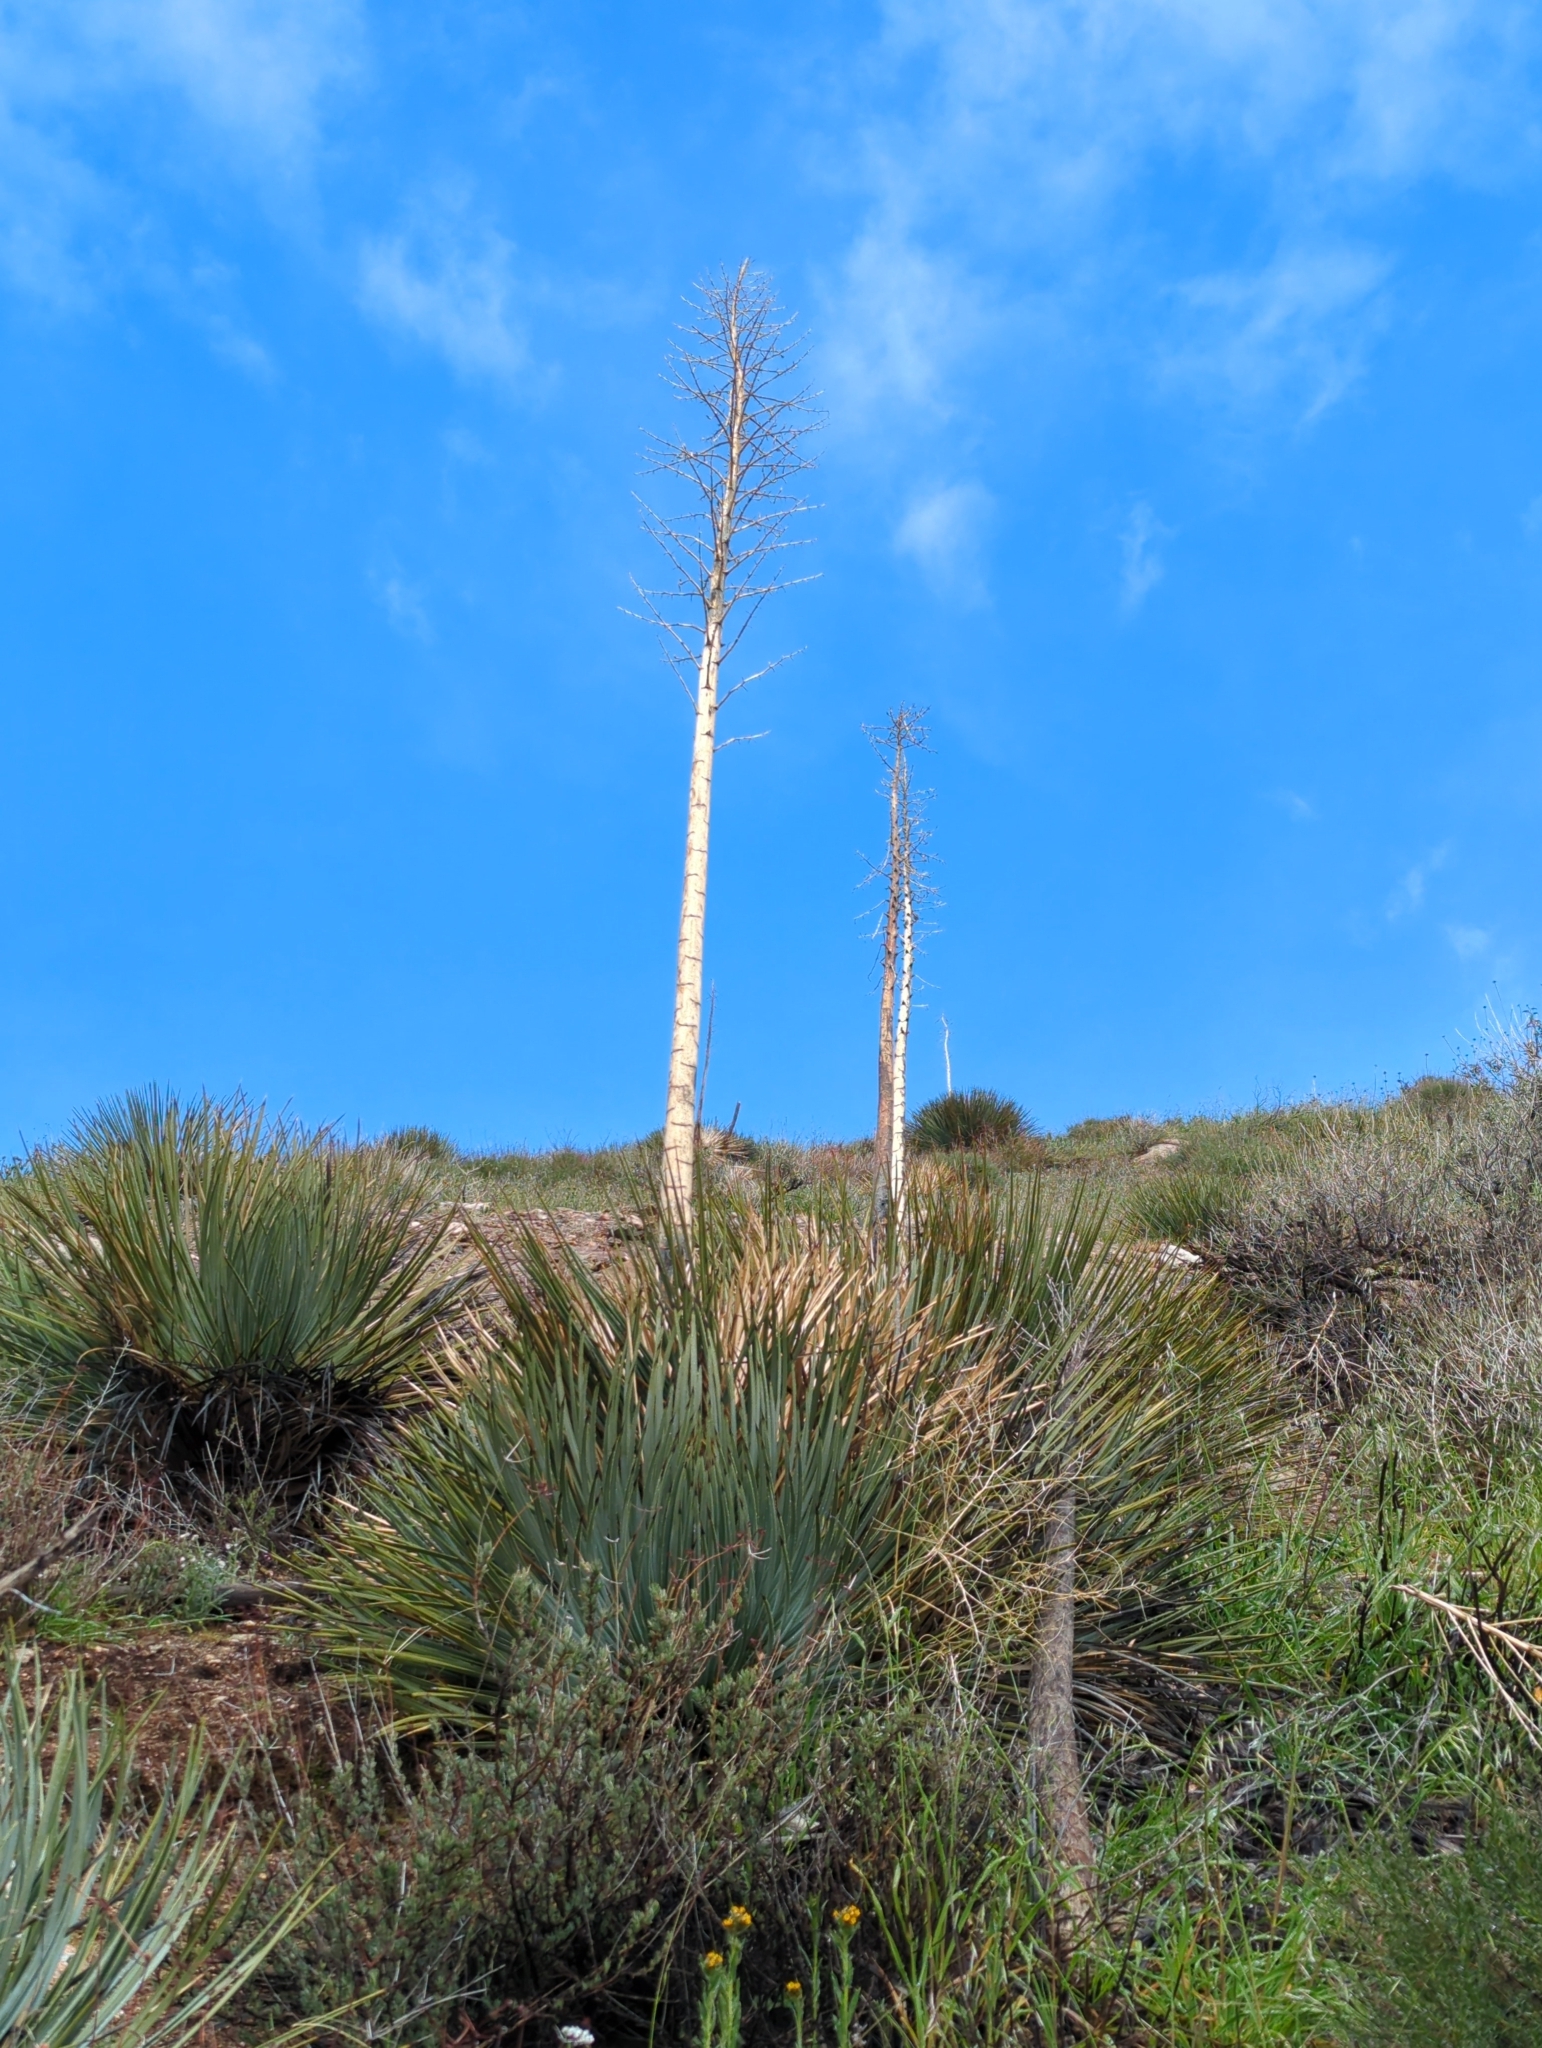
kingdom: Plantae
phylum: Tracheophyta
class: Liliopsida
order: Asparagales
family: Asparagaceae
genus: Hesperoyucca
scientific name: Hesperoyucca whipplei
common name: Our lord's-candle
